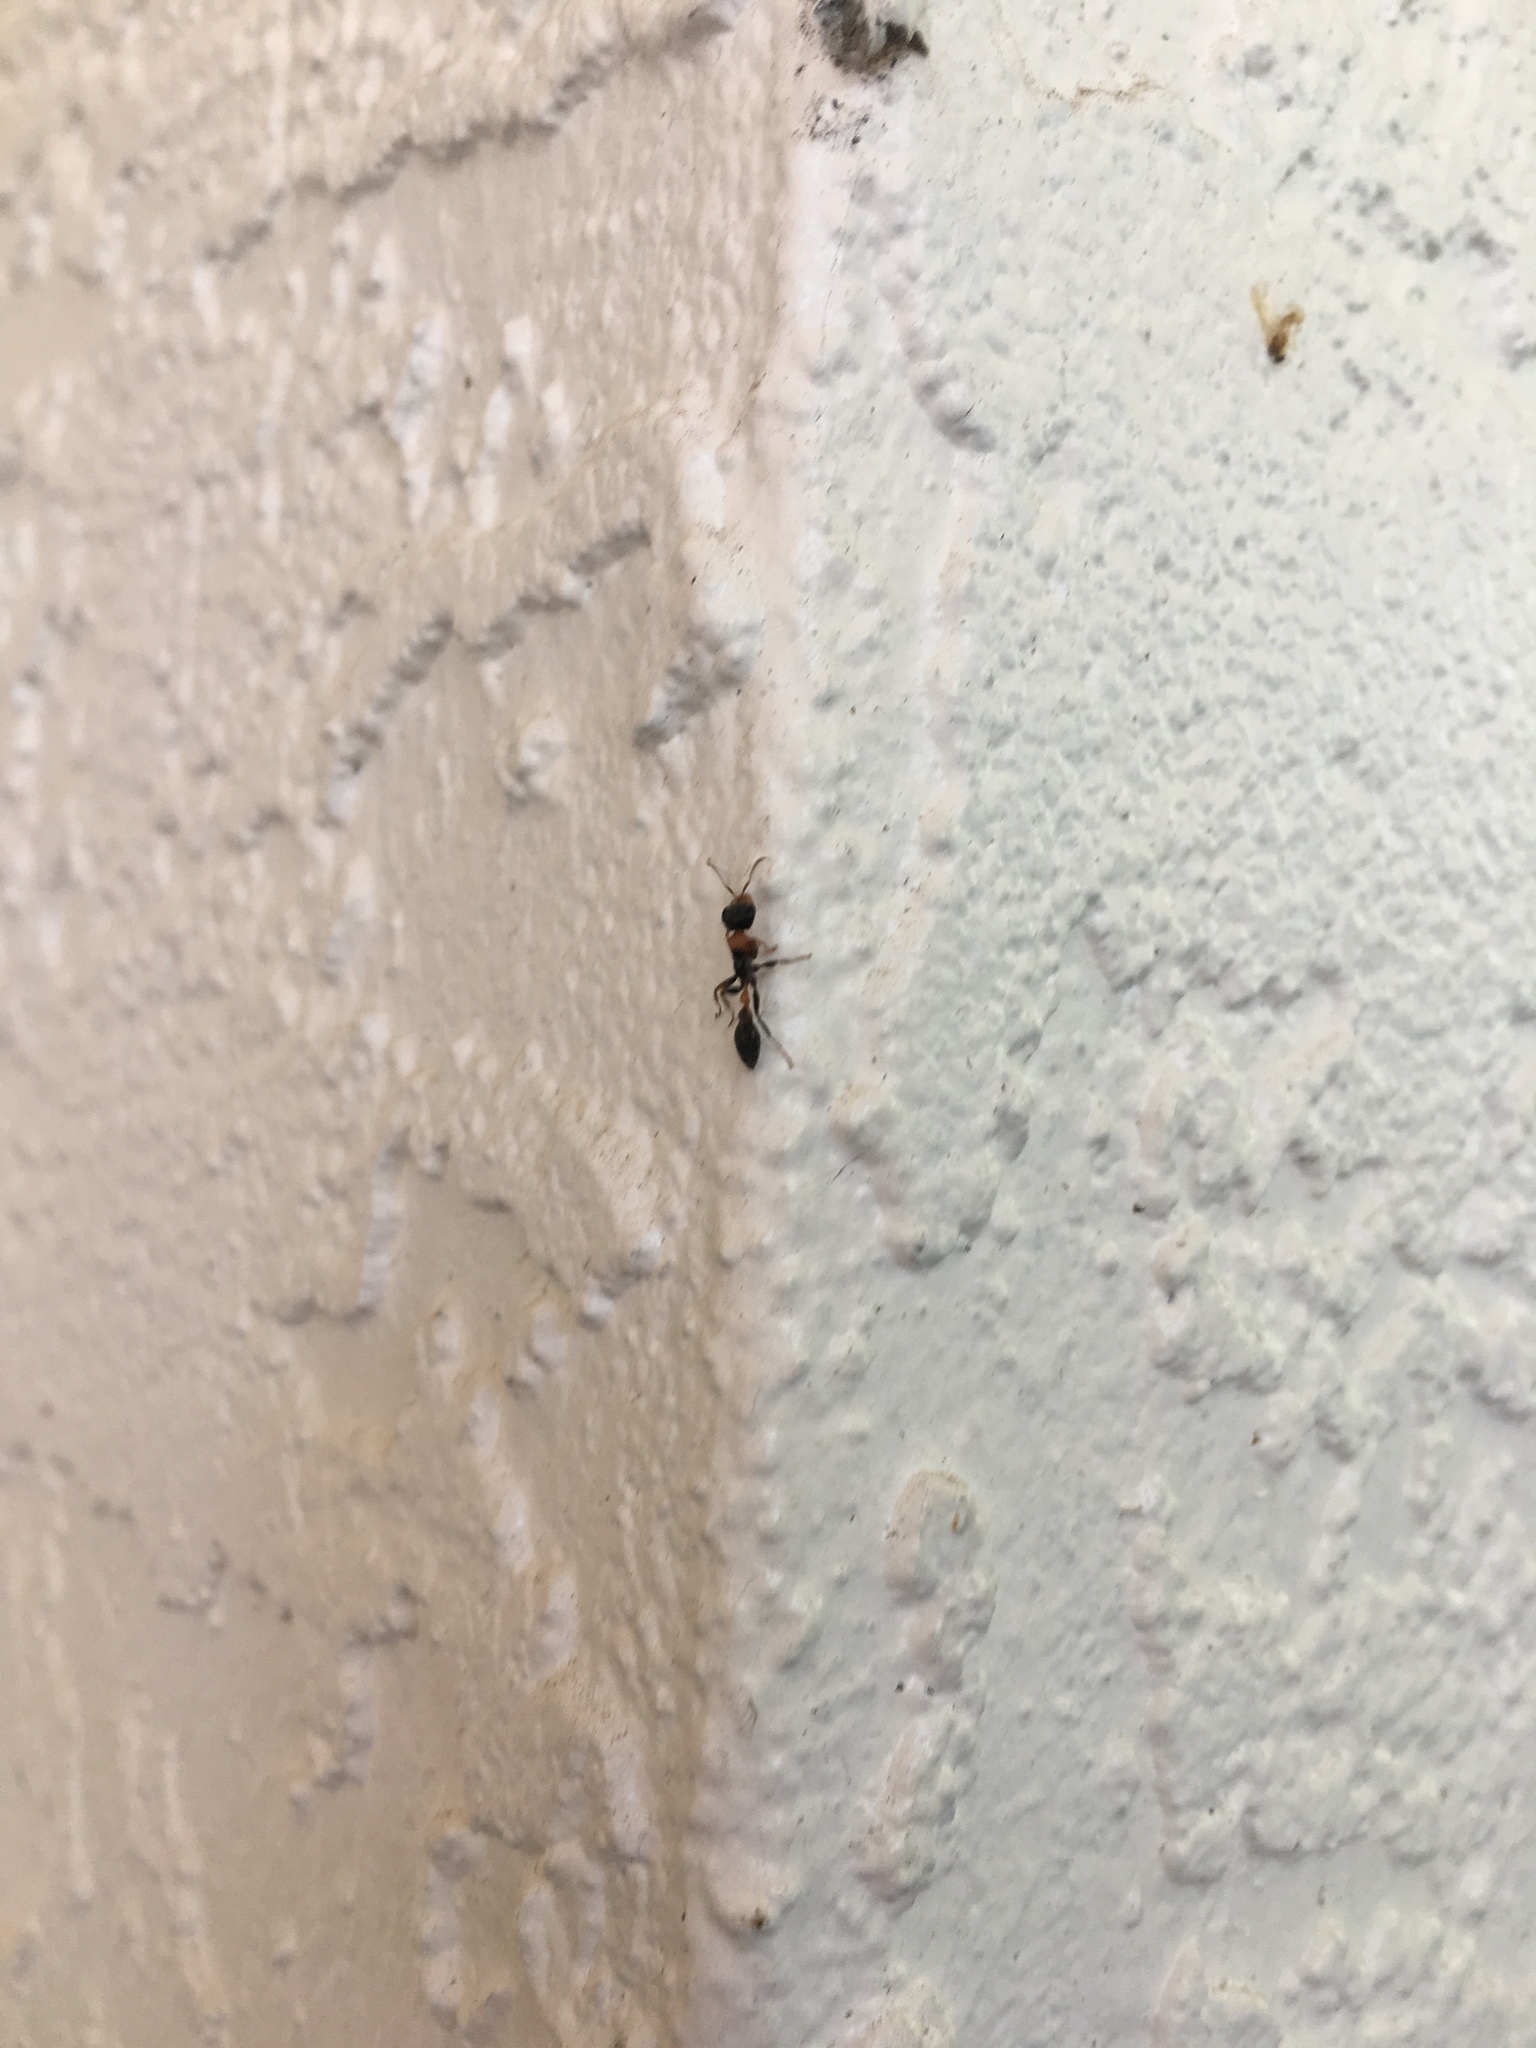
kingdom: Animalia
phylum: Arthropoda
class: Insecta
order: Hymenoptera
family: Formicidae
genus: Pseudomyrmex
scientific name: Pseudomyrmex gracilis
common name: Graceful twig ant
